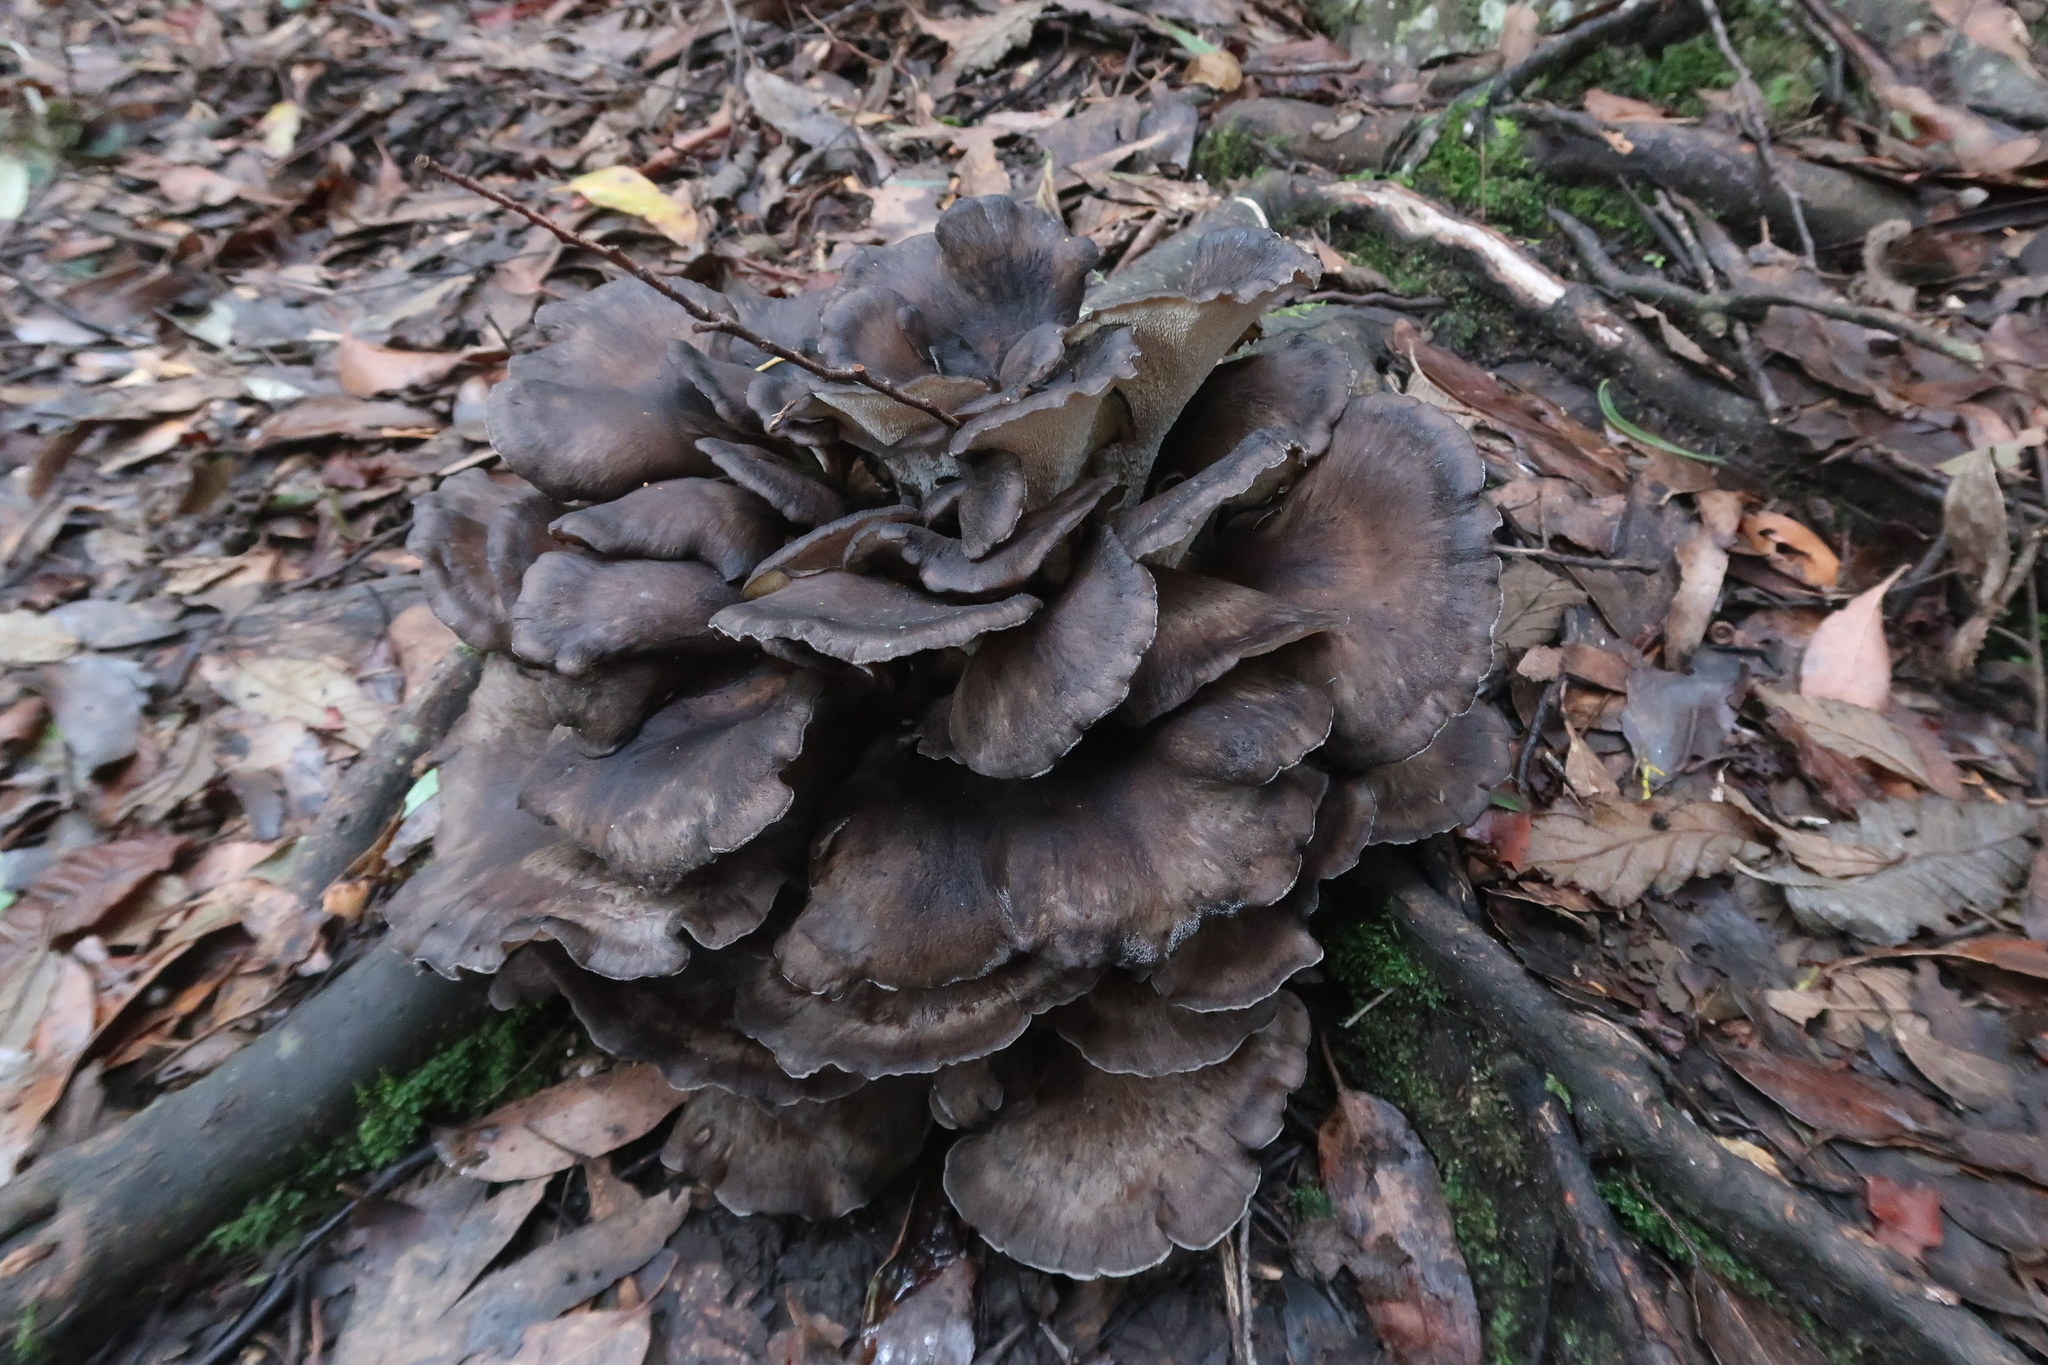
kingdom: Fungi
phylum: Basidiomycota
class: Agaricomycetes
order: Polyporales
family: Grifolaceae
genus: Grifola
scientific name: Grifola colensoi
